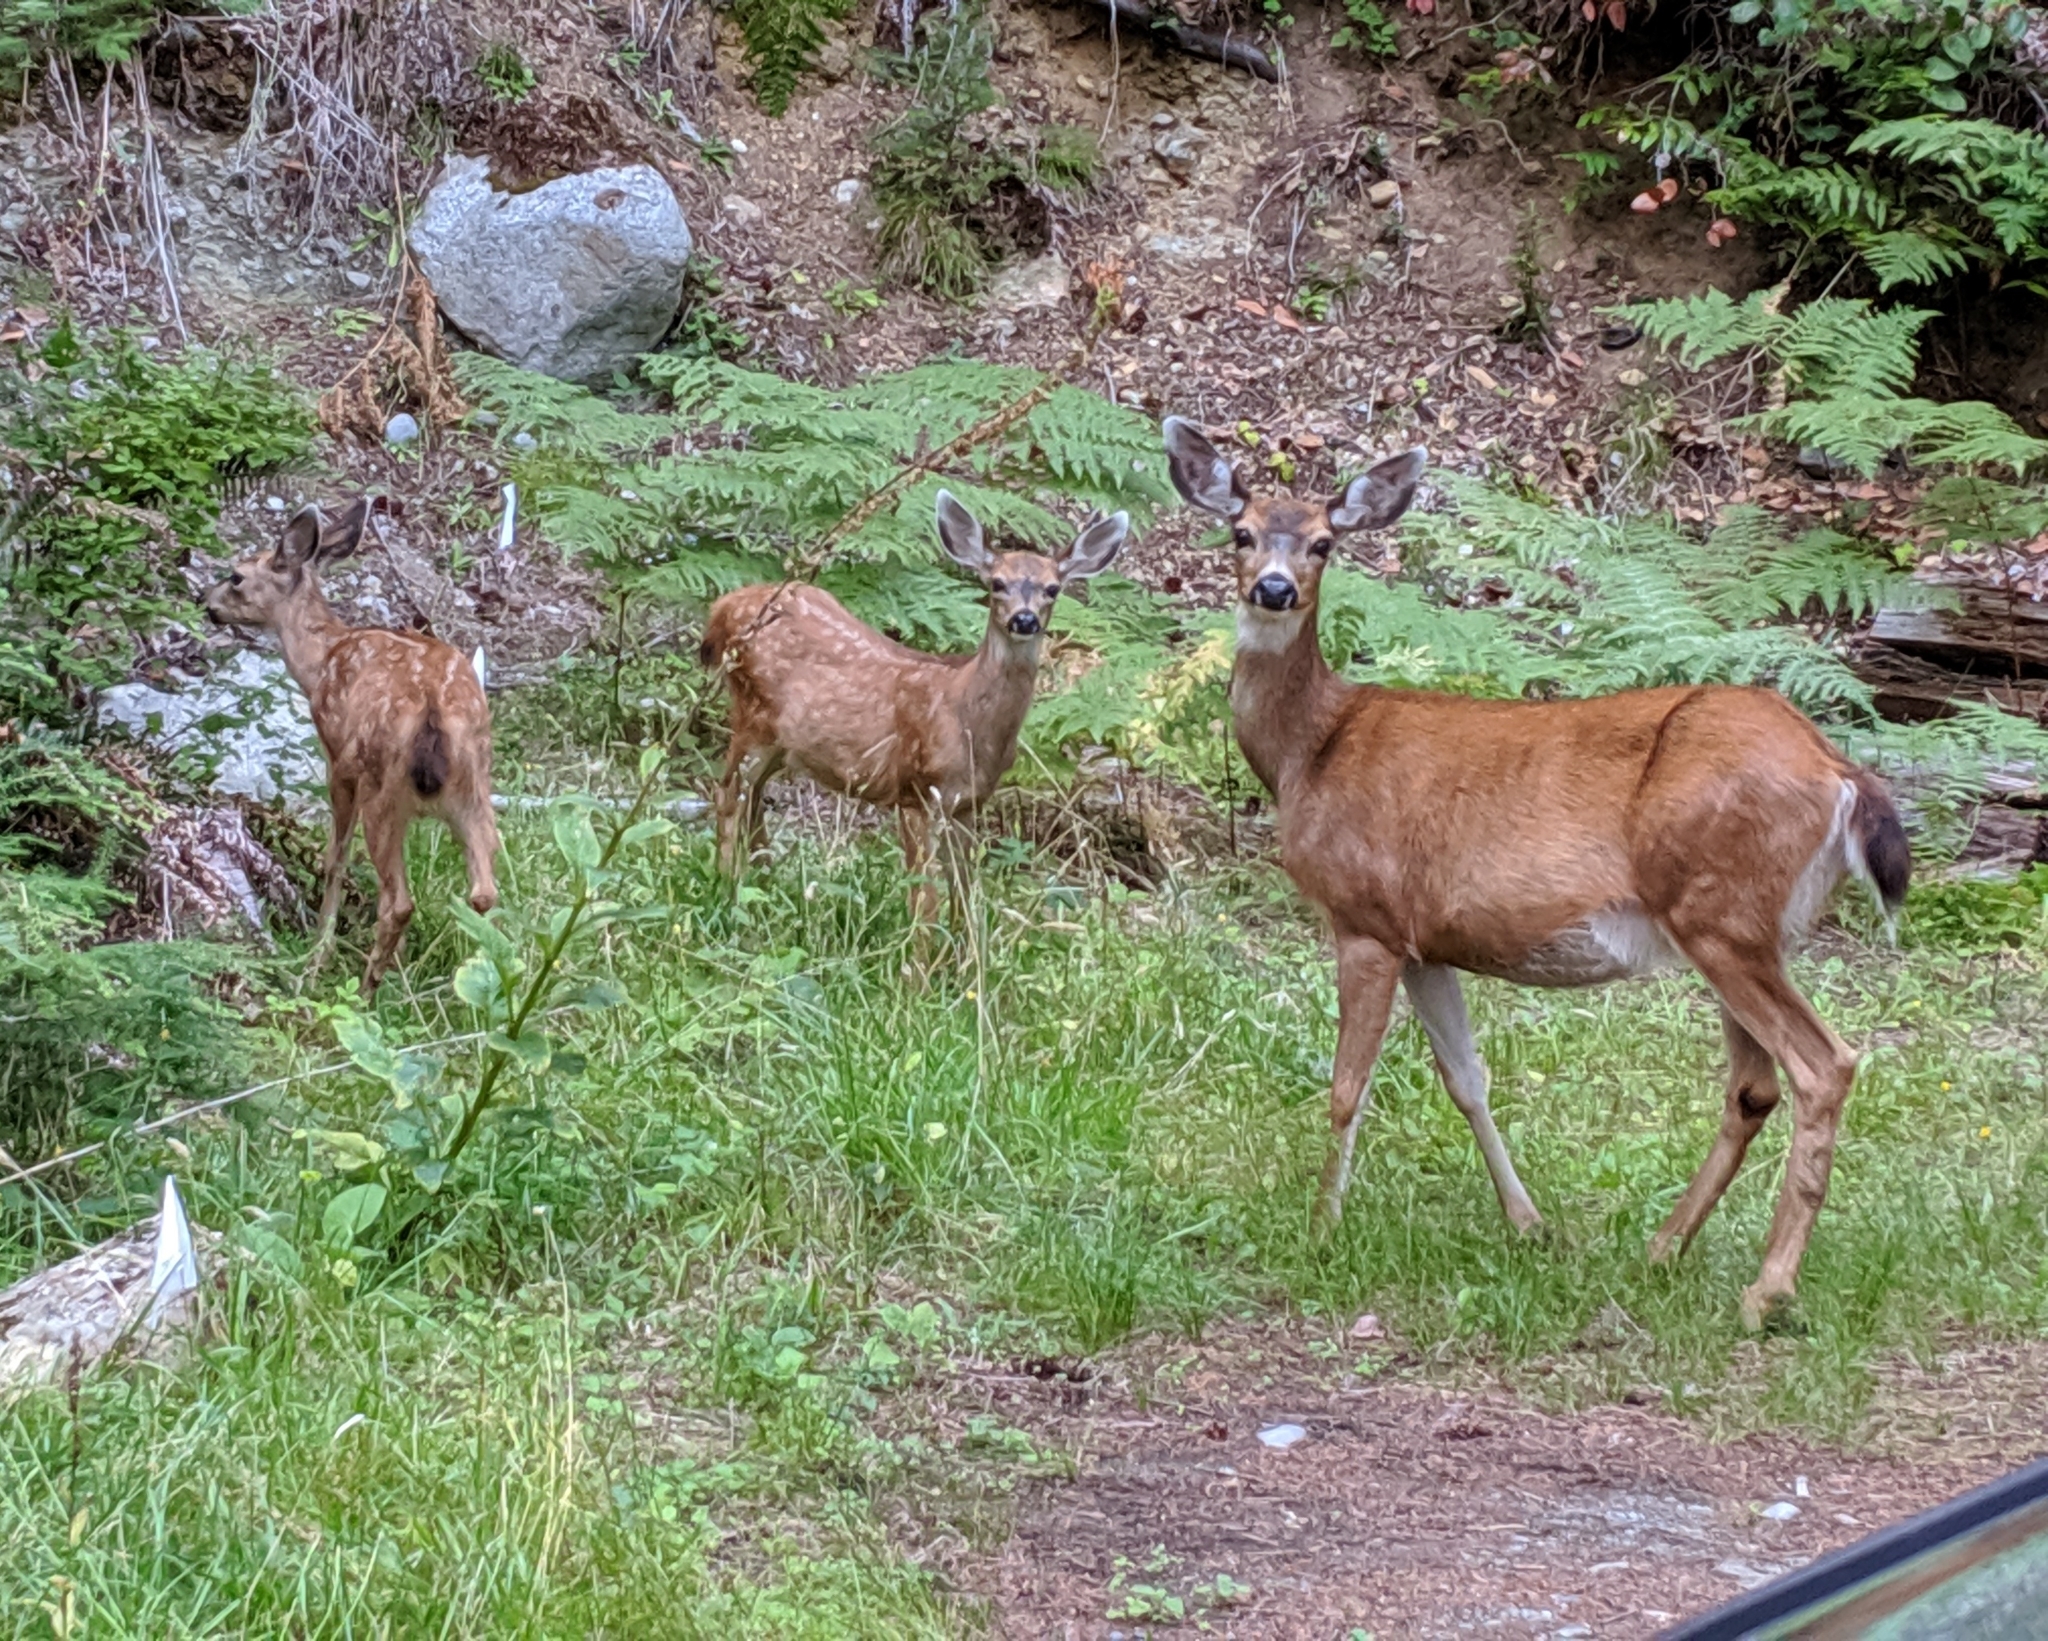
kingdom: Animalia
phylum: Chordata
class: Mammalia
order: Artiodactyla
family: Cervidae
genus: Odocoileus
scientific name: Odocoileus hemionus
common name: Mule deer
